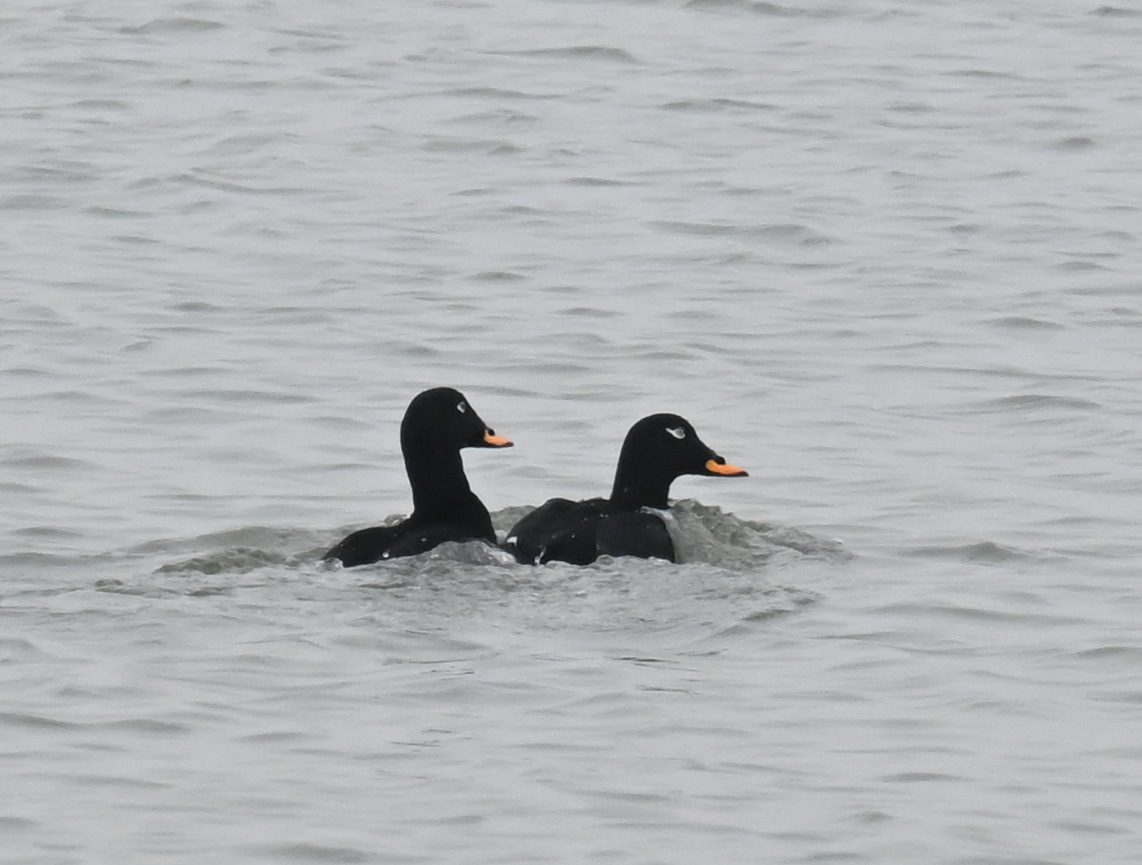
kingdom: Animalia
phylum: Chordata
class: Aves
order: Anseriformes
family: Anatidae
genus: Melanitta
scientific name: Melanitta fusca
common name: Velvet scoter
